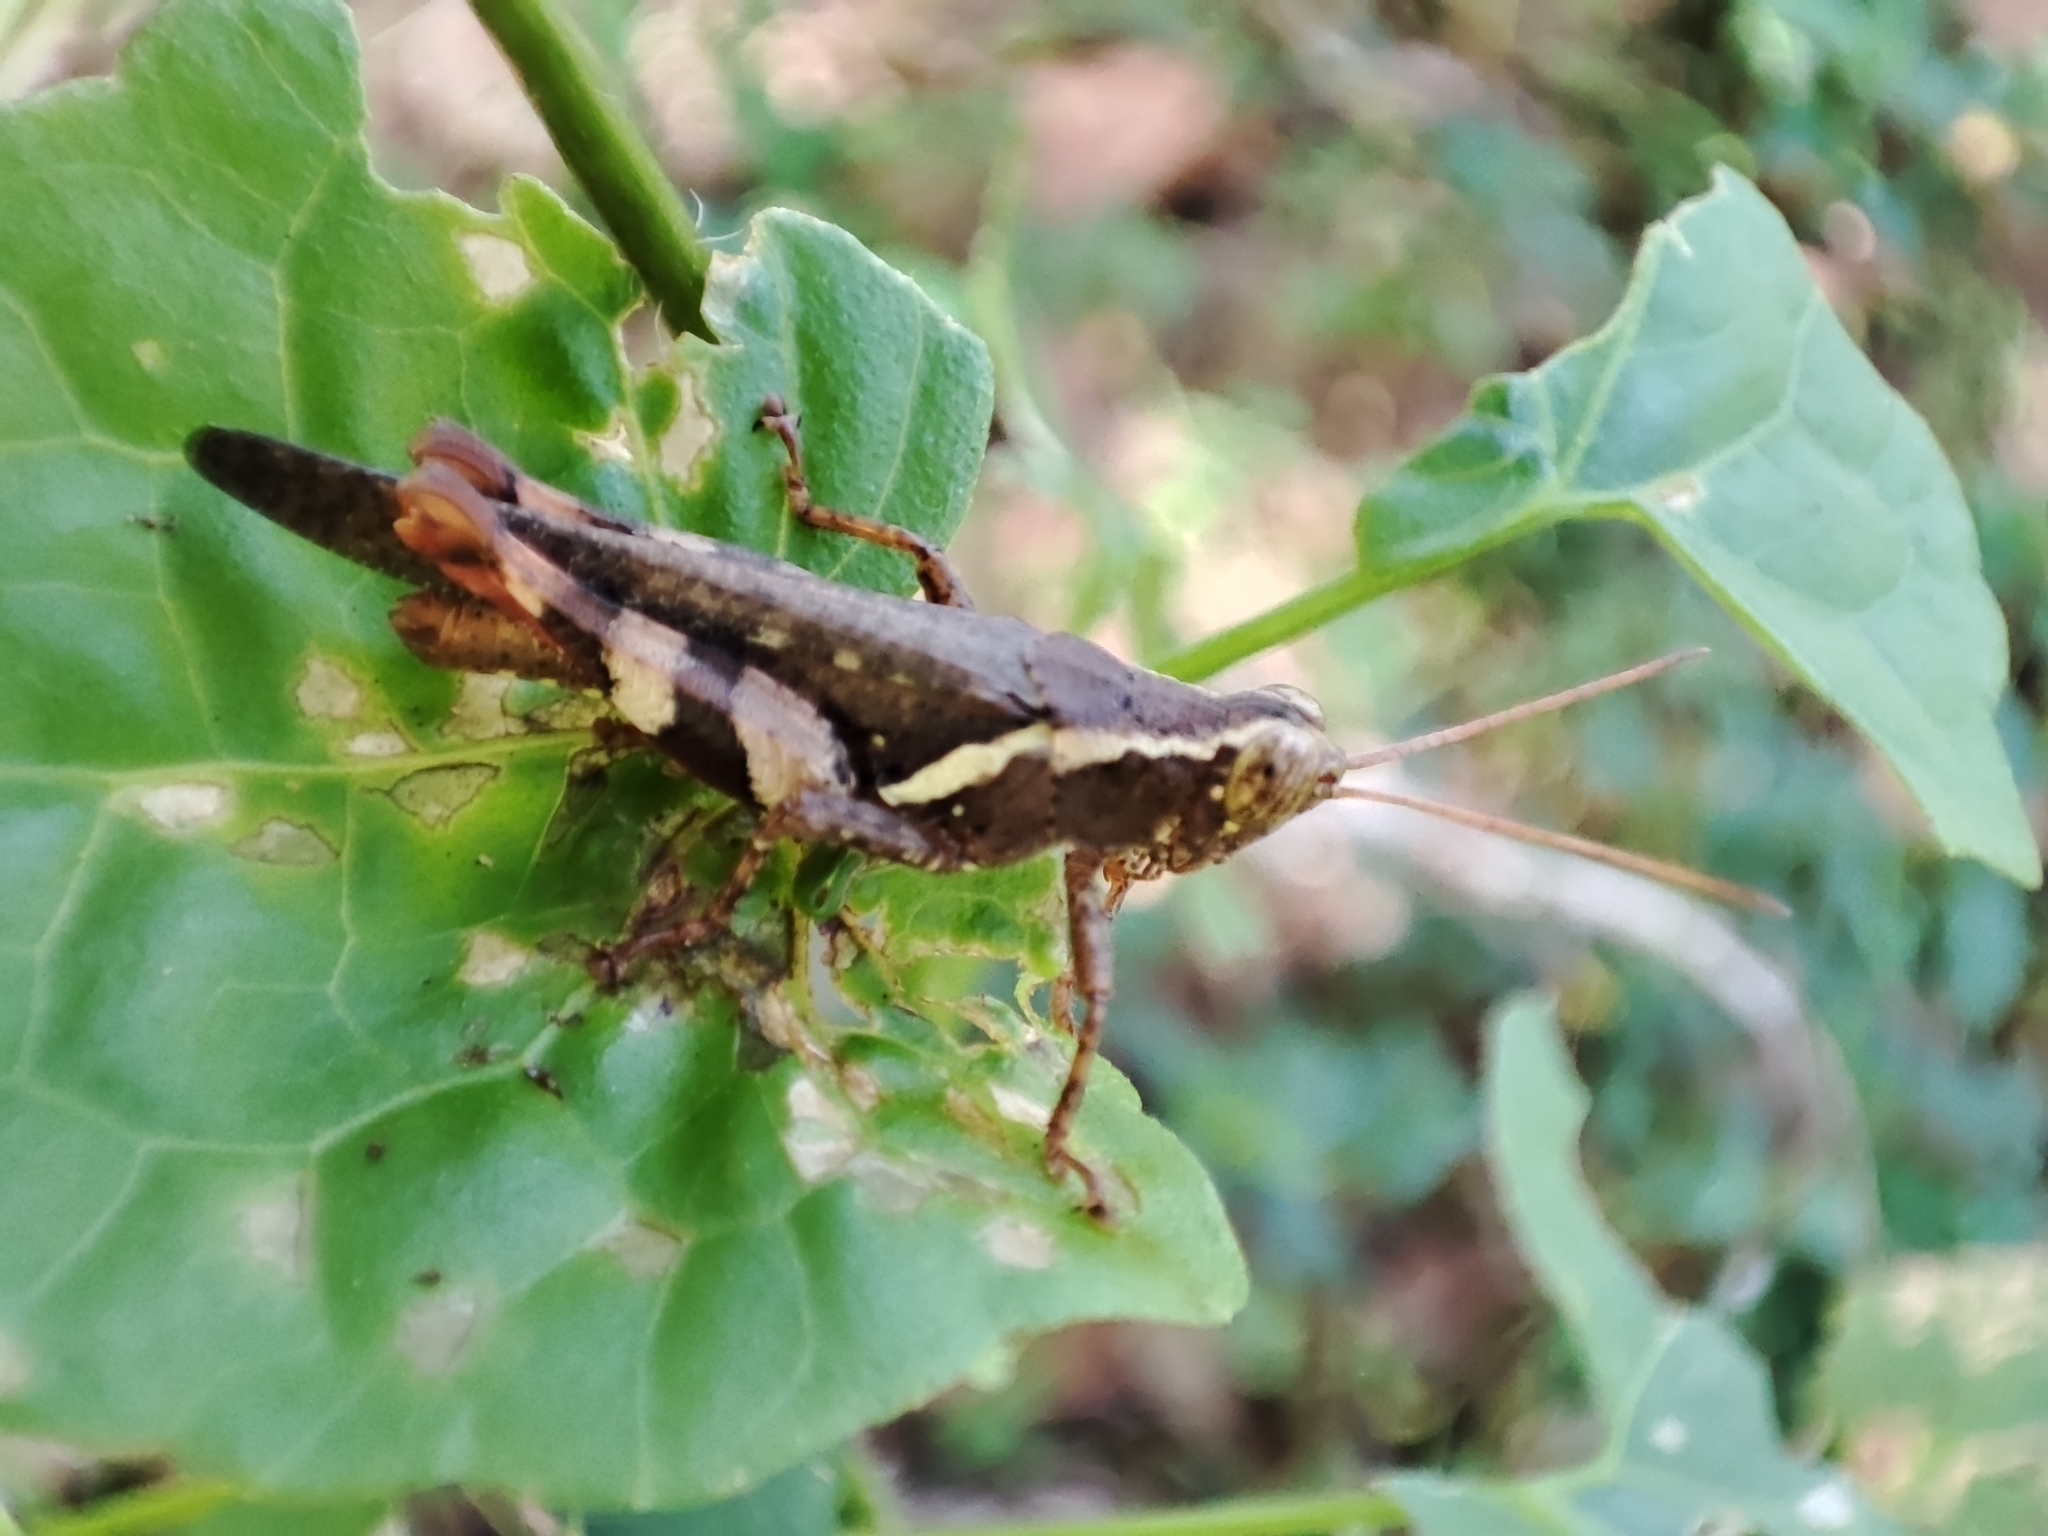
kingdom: Animalia
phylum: Arthropoda
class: Insecta
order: Orthoptera
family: Acrididae
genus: Xenocatantops
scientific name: Xenocatantops humile
